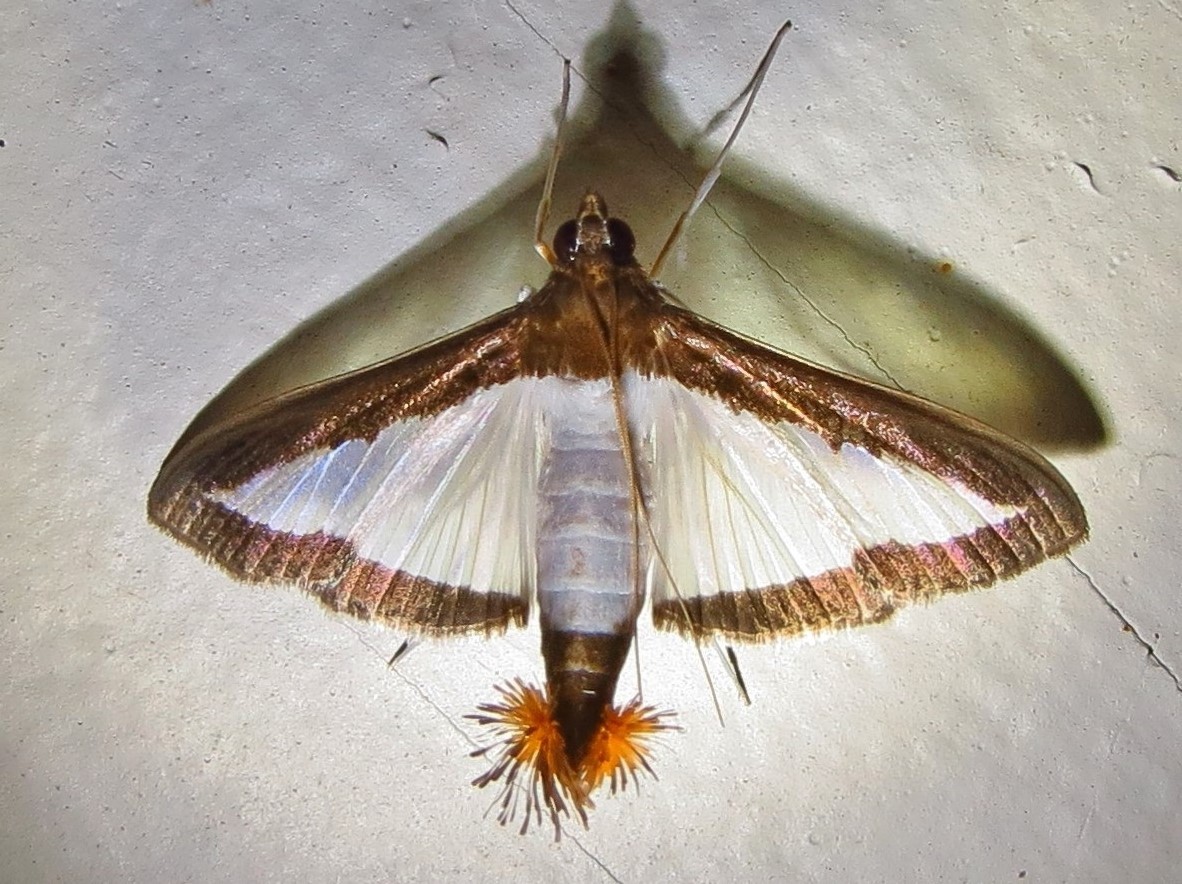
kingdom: Animalia
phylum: Arthropoda
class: Insecta
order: Lepidoptera
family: Crambidae
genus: Diaphania
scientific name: Diaphania hyalinata
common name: Melonworm
